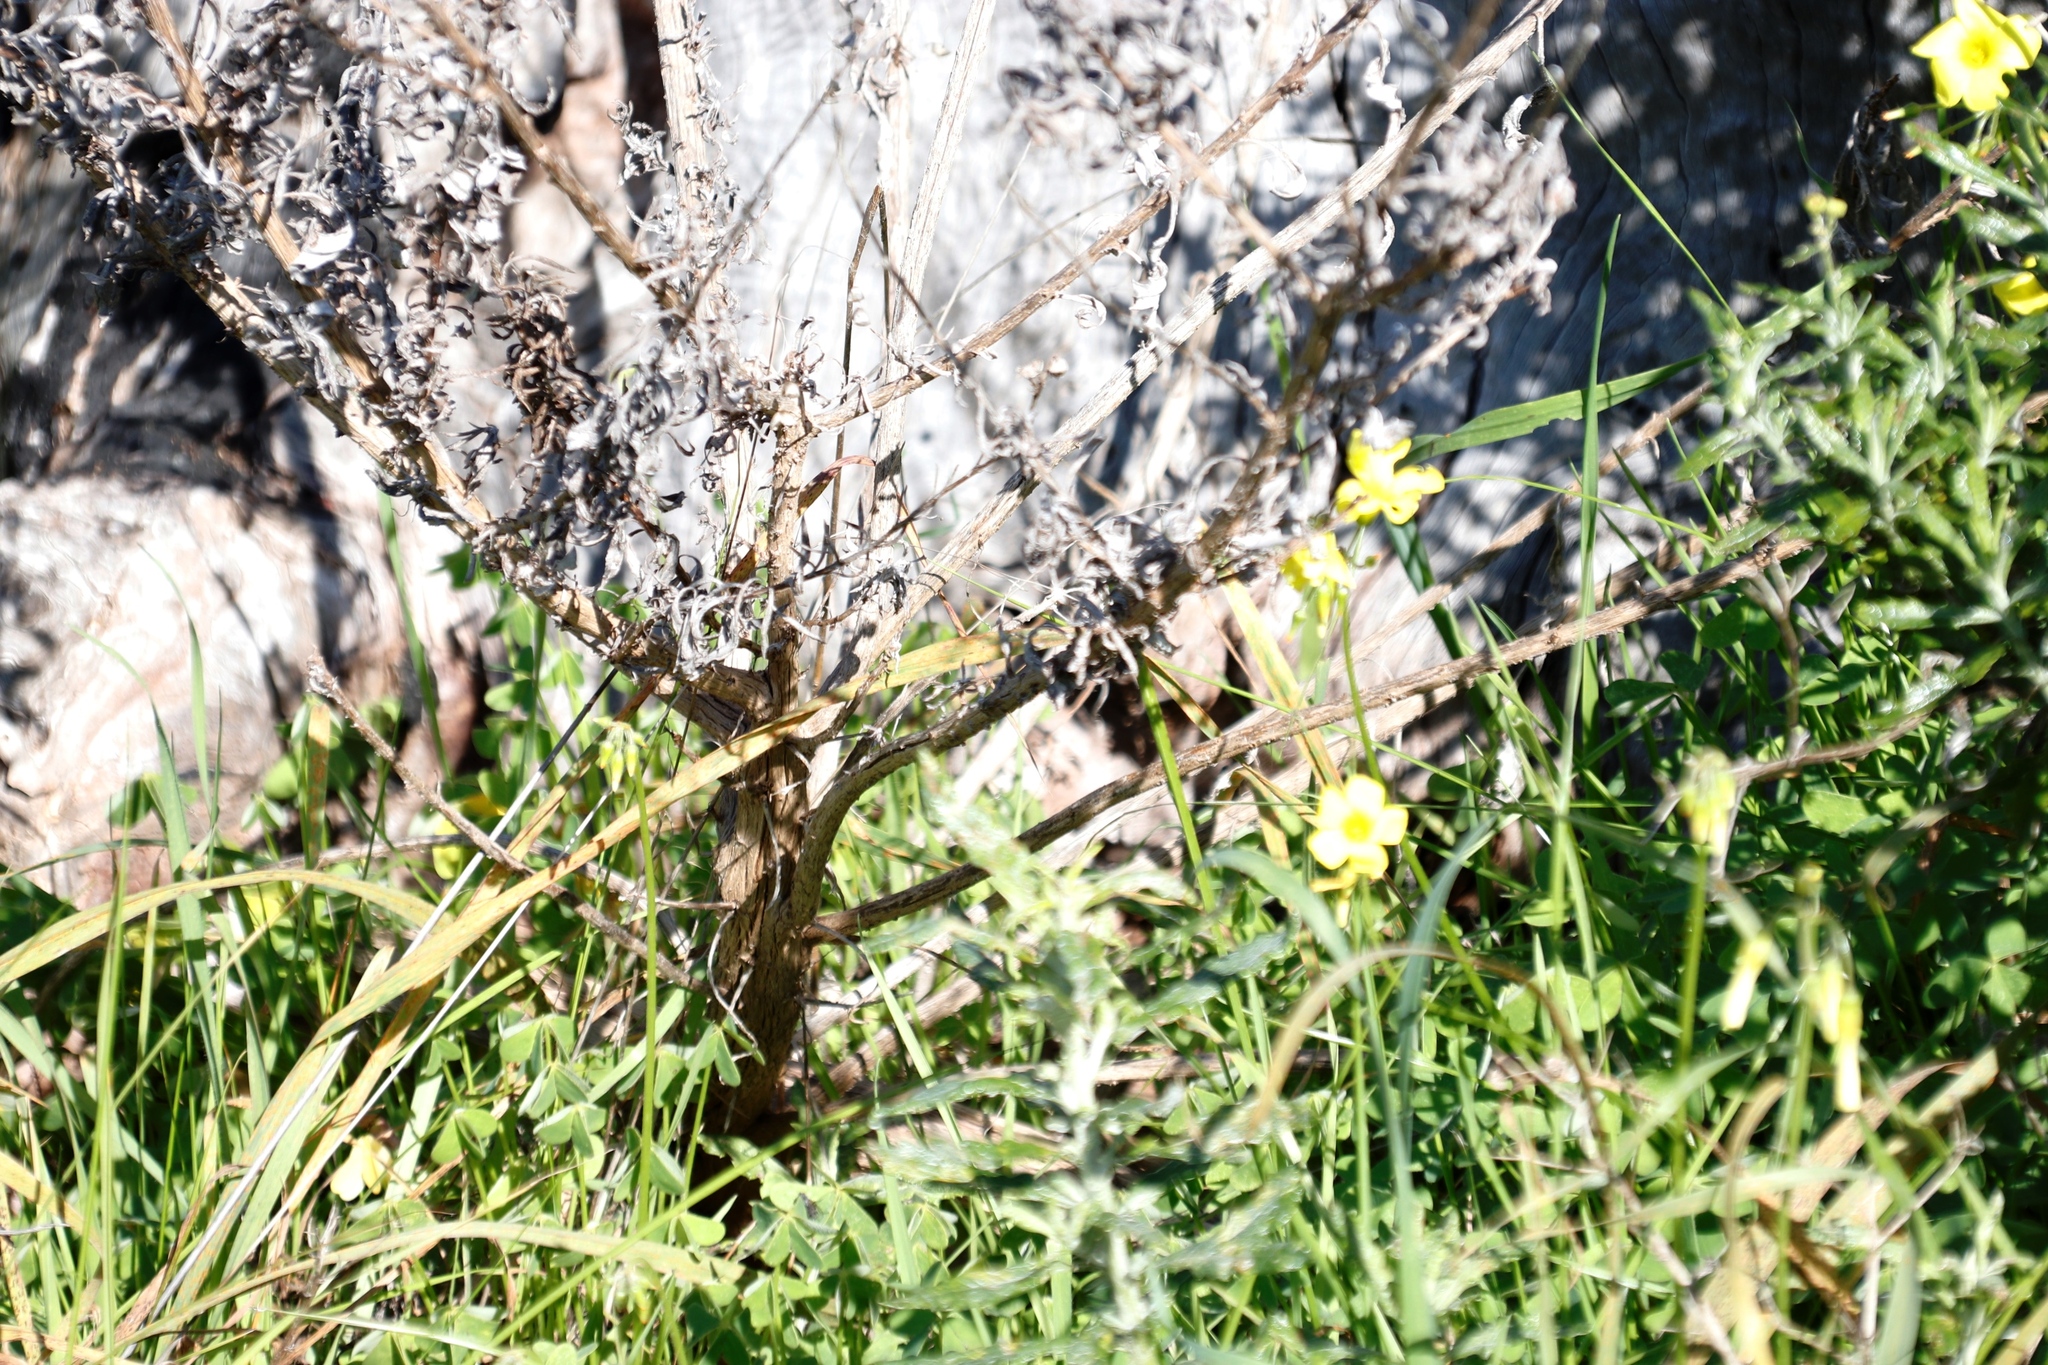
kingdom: Plantae
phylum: Tracheophyta
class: Magnoliopsida
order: Oxalidales
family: Oxalidaceae
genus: Oxalis
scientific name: Oxalis pes-caprae
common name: Bermuda-buttercup
